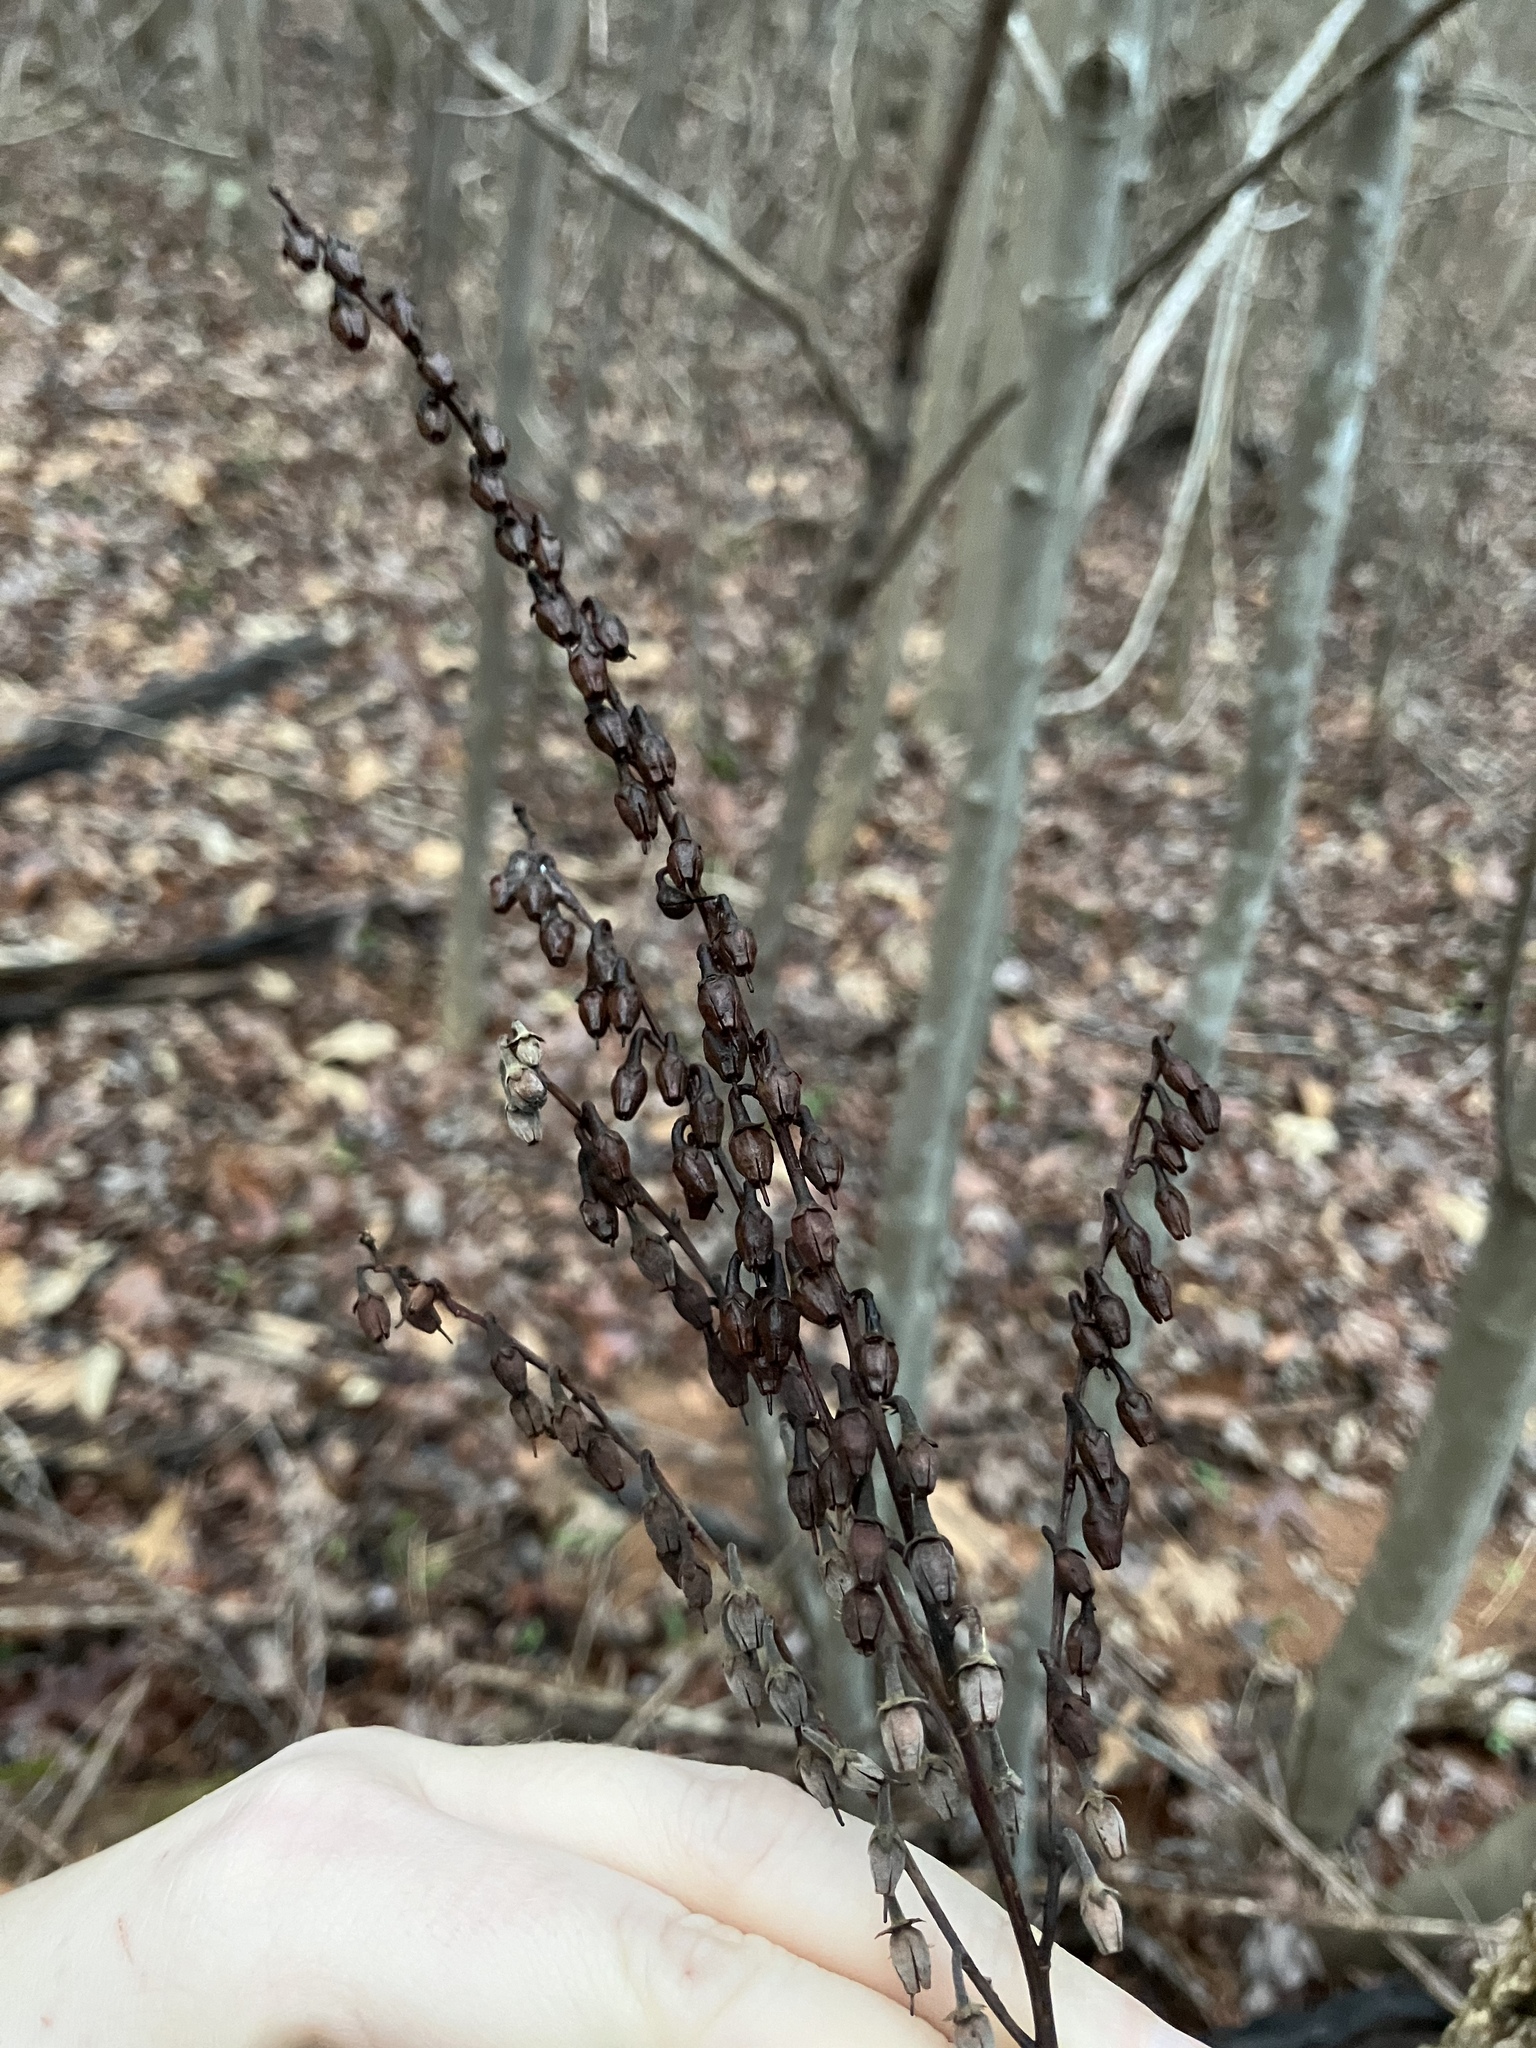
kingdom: Plantae
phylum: Tracheophyta
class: Magnoliopsida
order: Ericales
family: Ericaceae
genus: Oxydendrum
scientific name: Oxydendrum arboreum
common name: Sourwood
